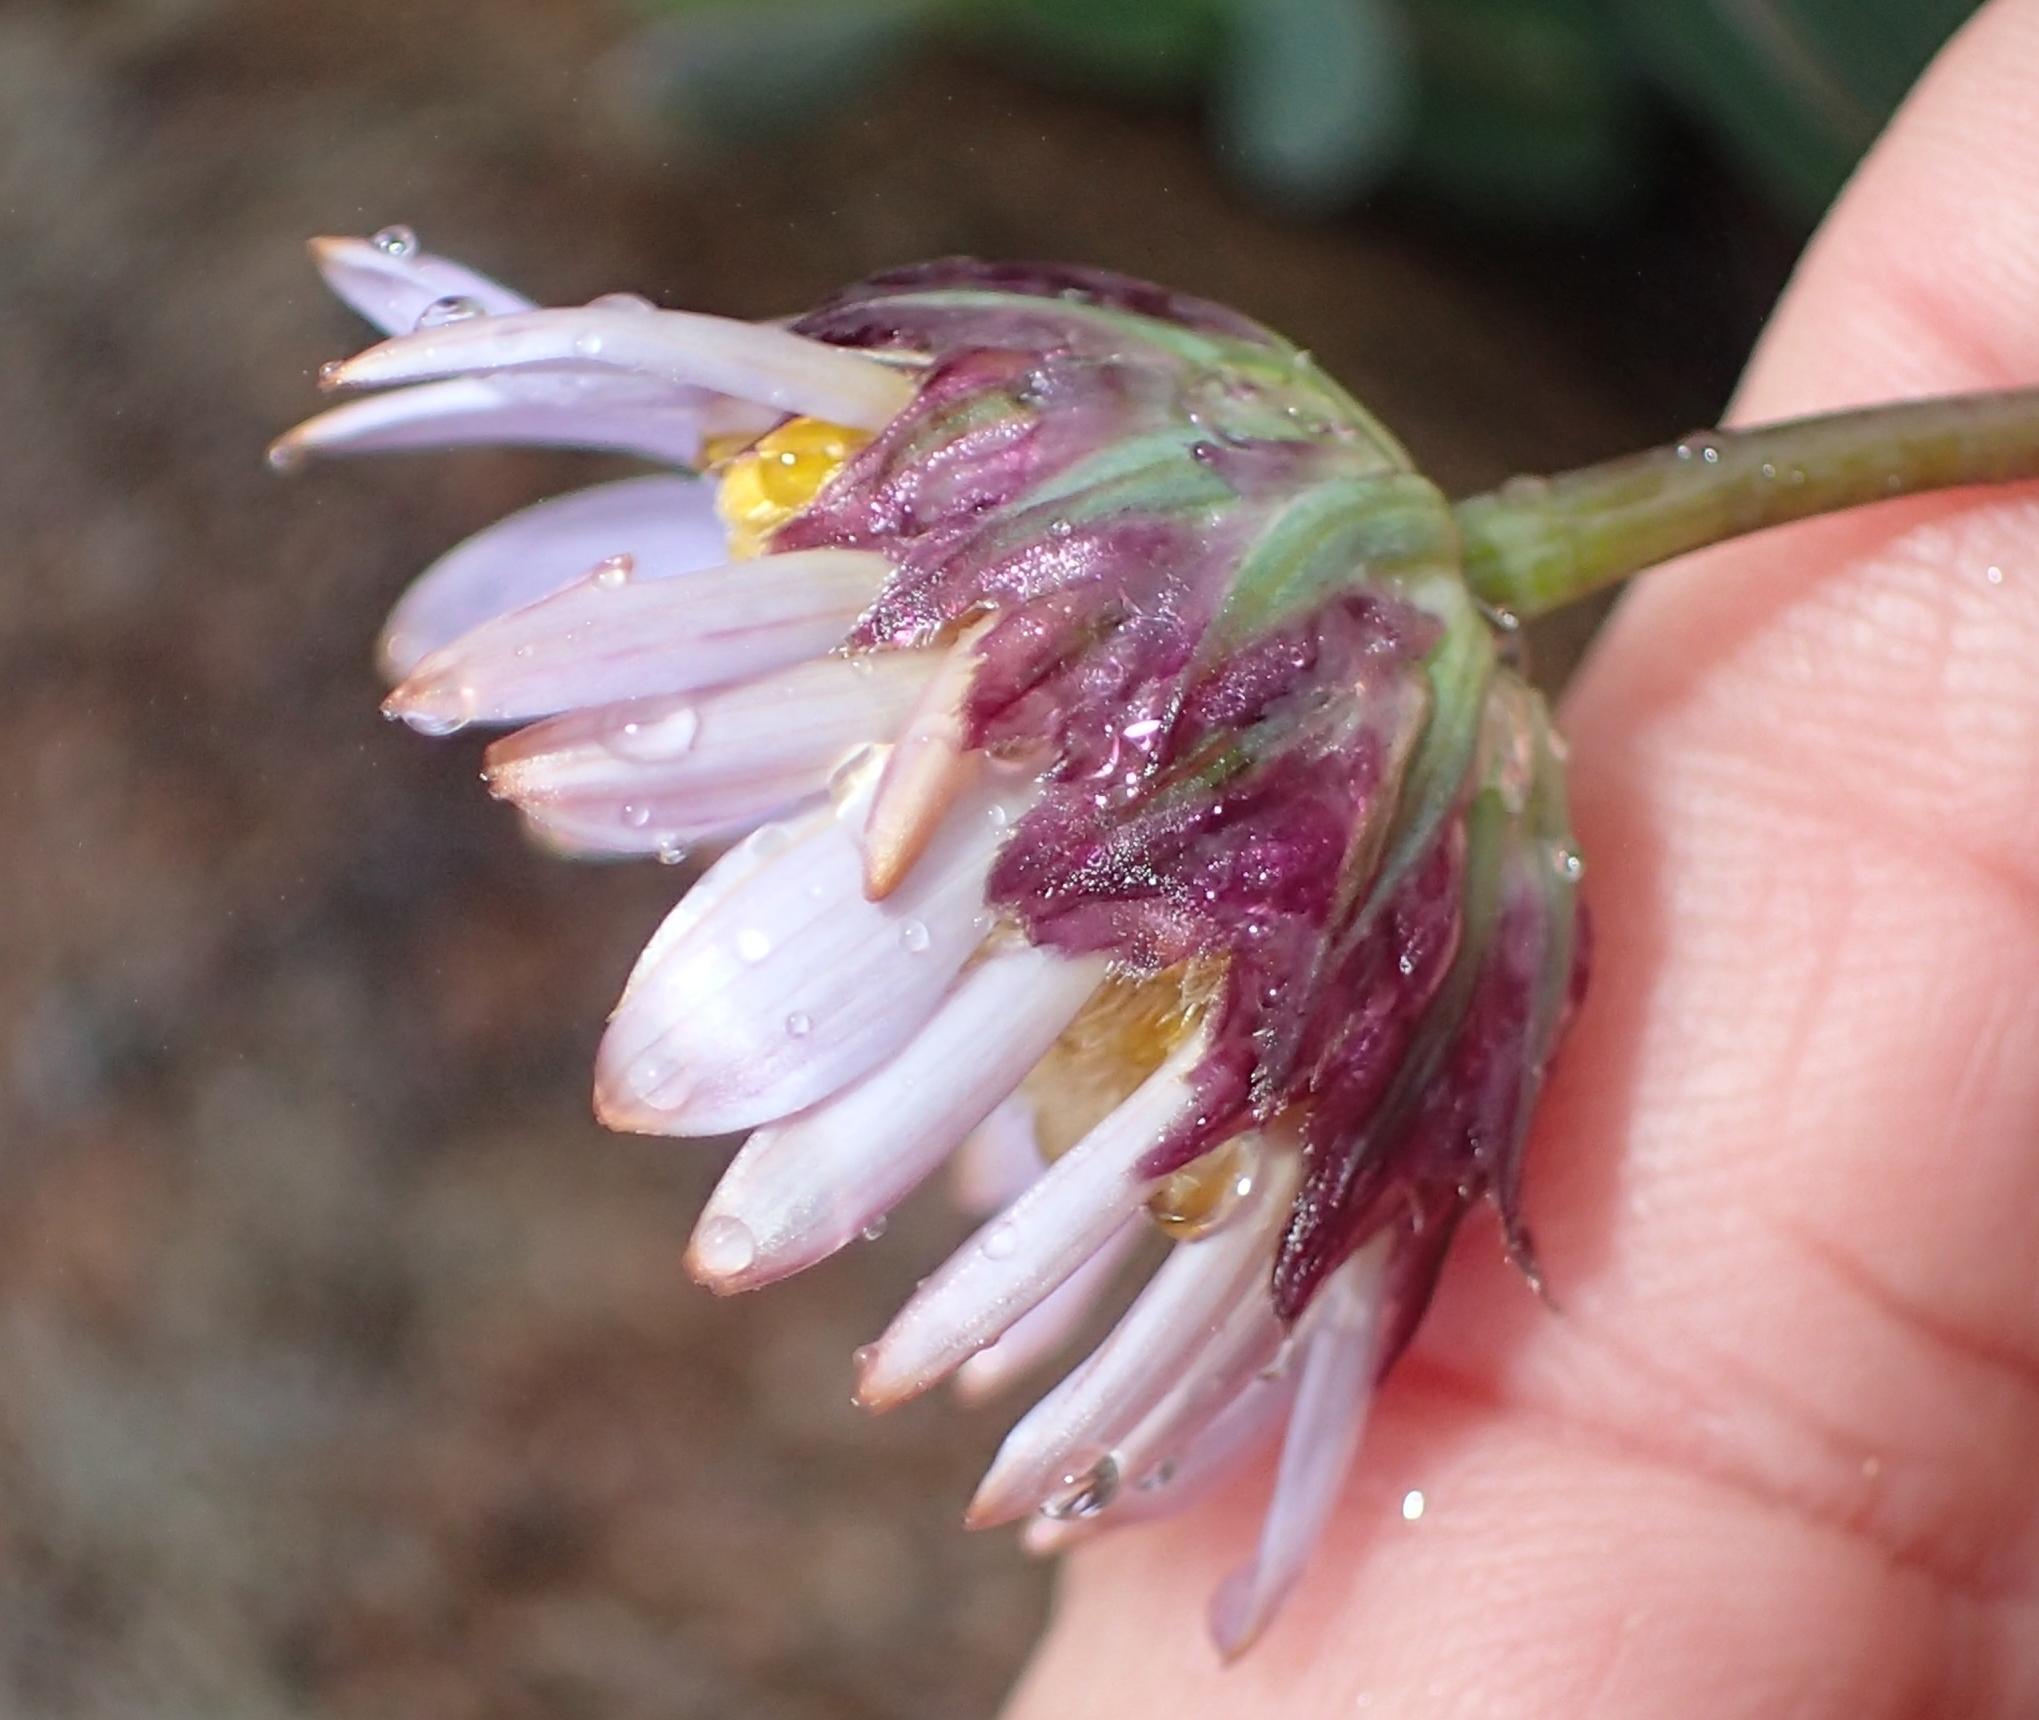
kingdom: Plantae
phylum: Tracheophyta
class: Magnoliopsida
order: Asterales
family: Asteraceae
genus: Afroaster
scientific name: Afroaster perfoliatus
